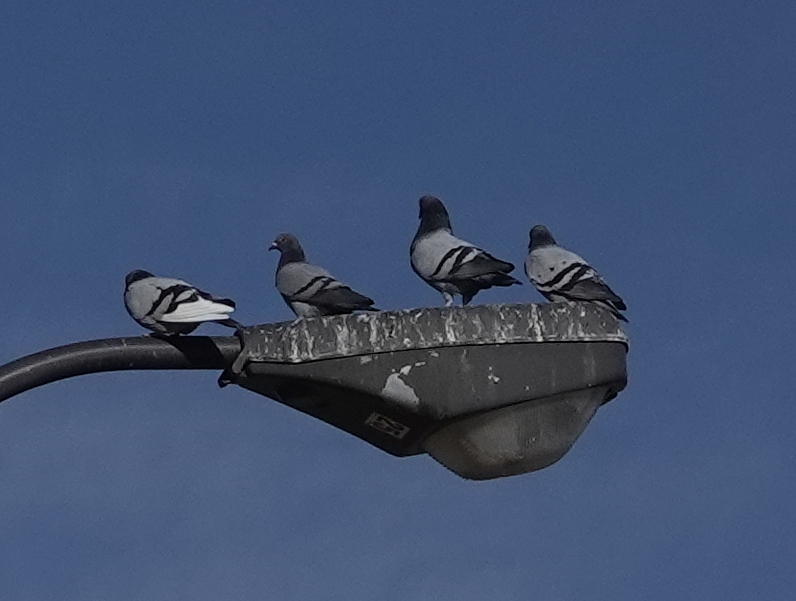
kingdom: Animalia
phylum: Chordata
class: Aves
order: Columbiformes
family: Columbidae
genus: Columba
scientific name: Columba livia
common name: Rock pigeon
